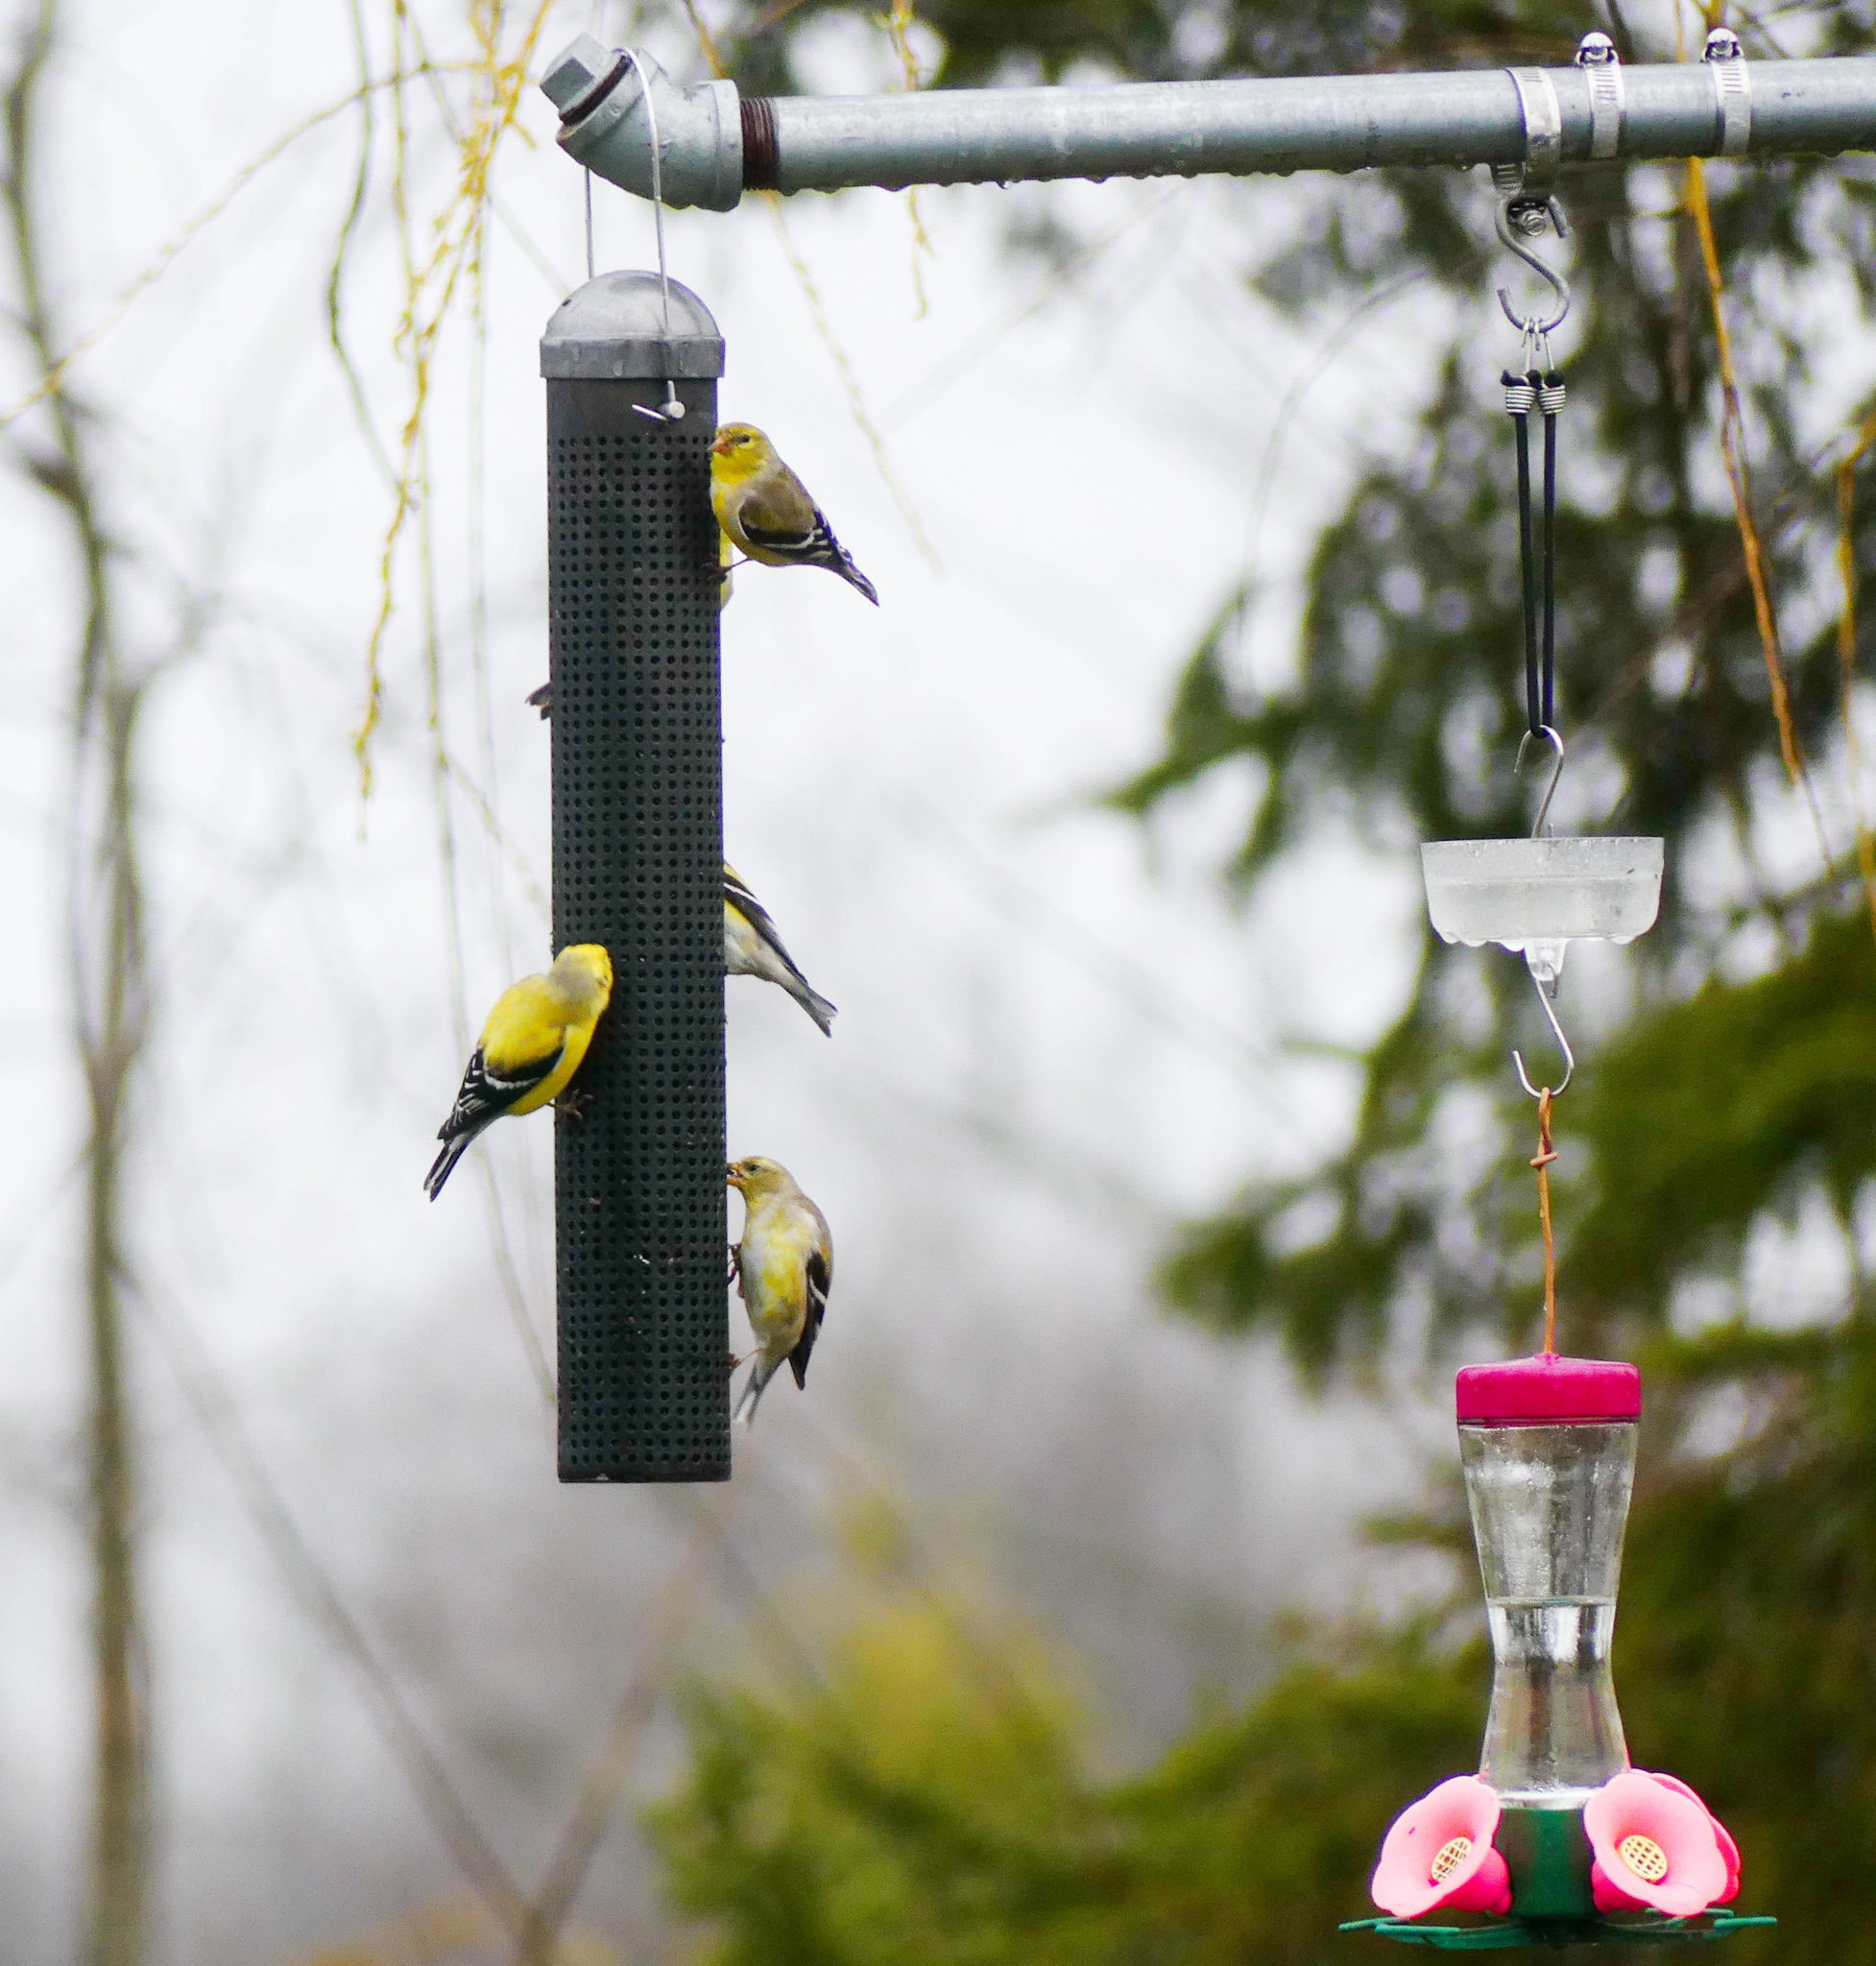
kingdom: Animalia
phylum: Chordata
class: Aves
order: Passeriformes
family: Fringillidae
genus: Spinus
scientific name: Spinus tristis
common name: American goldfinch
